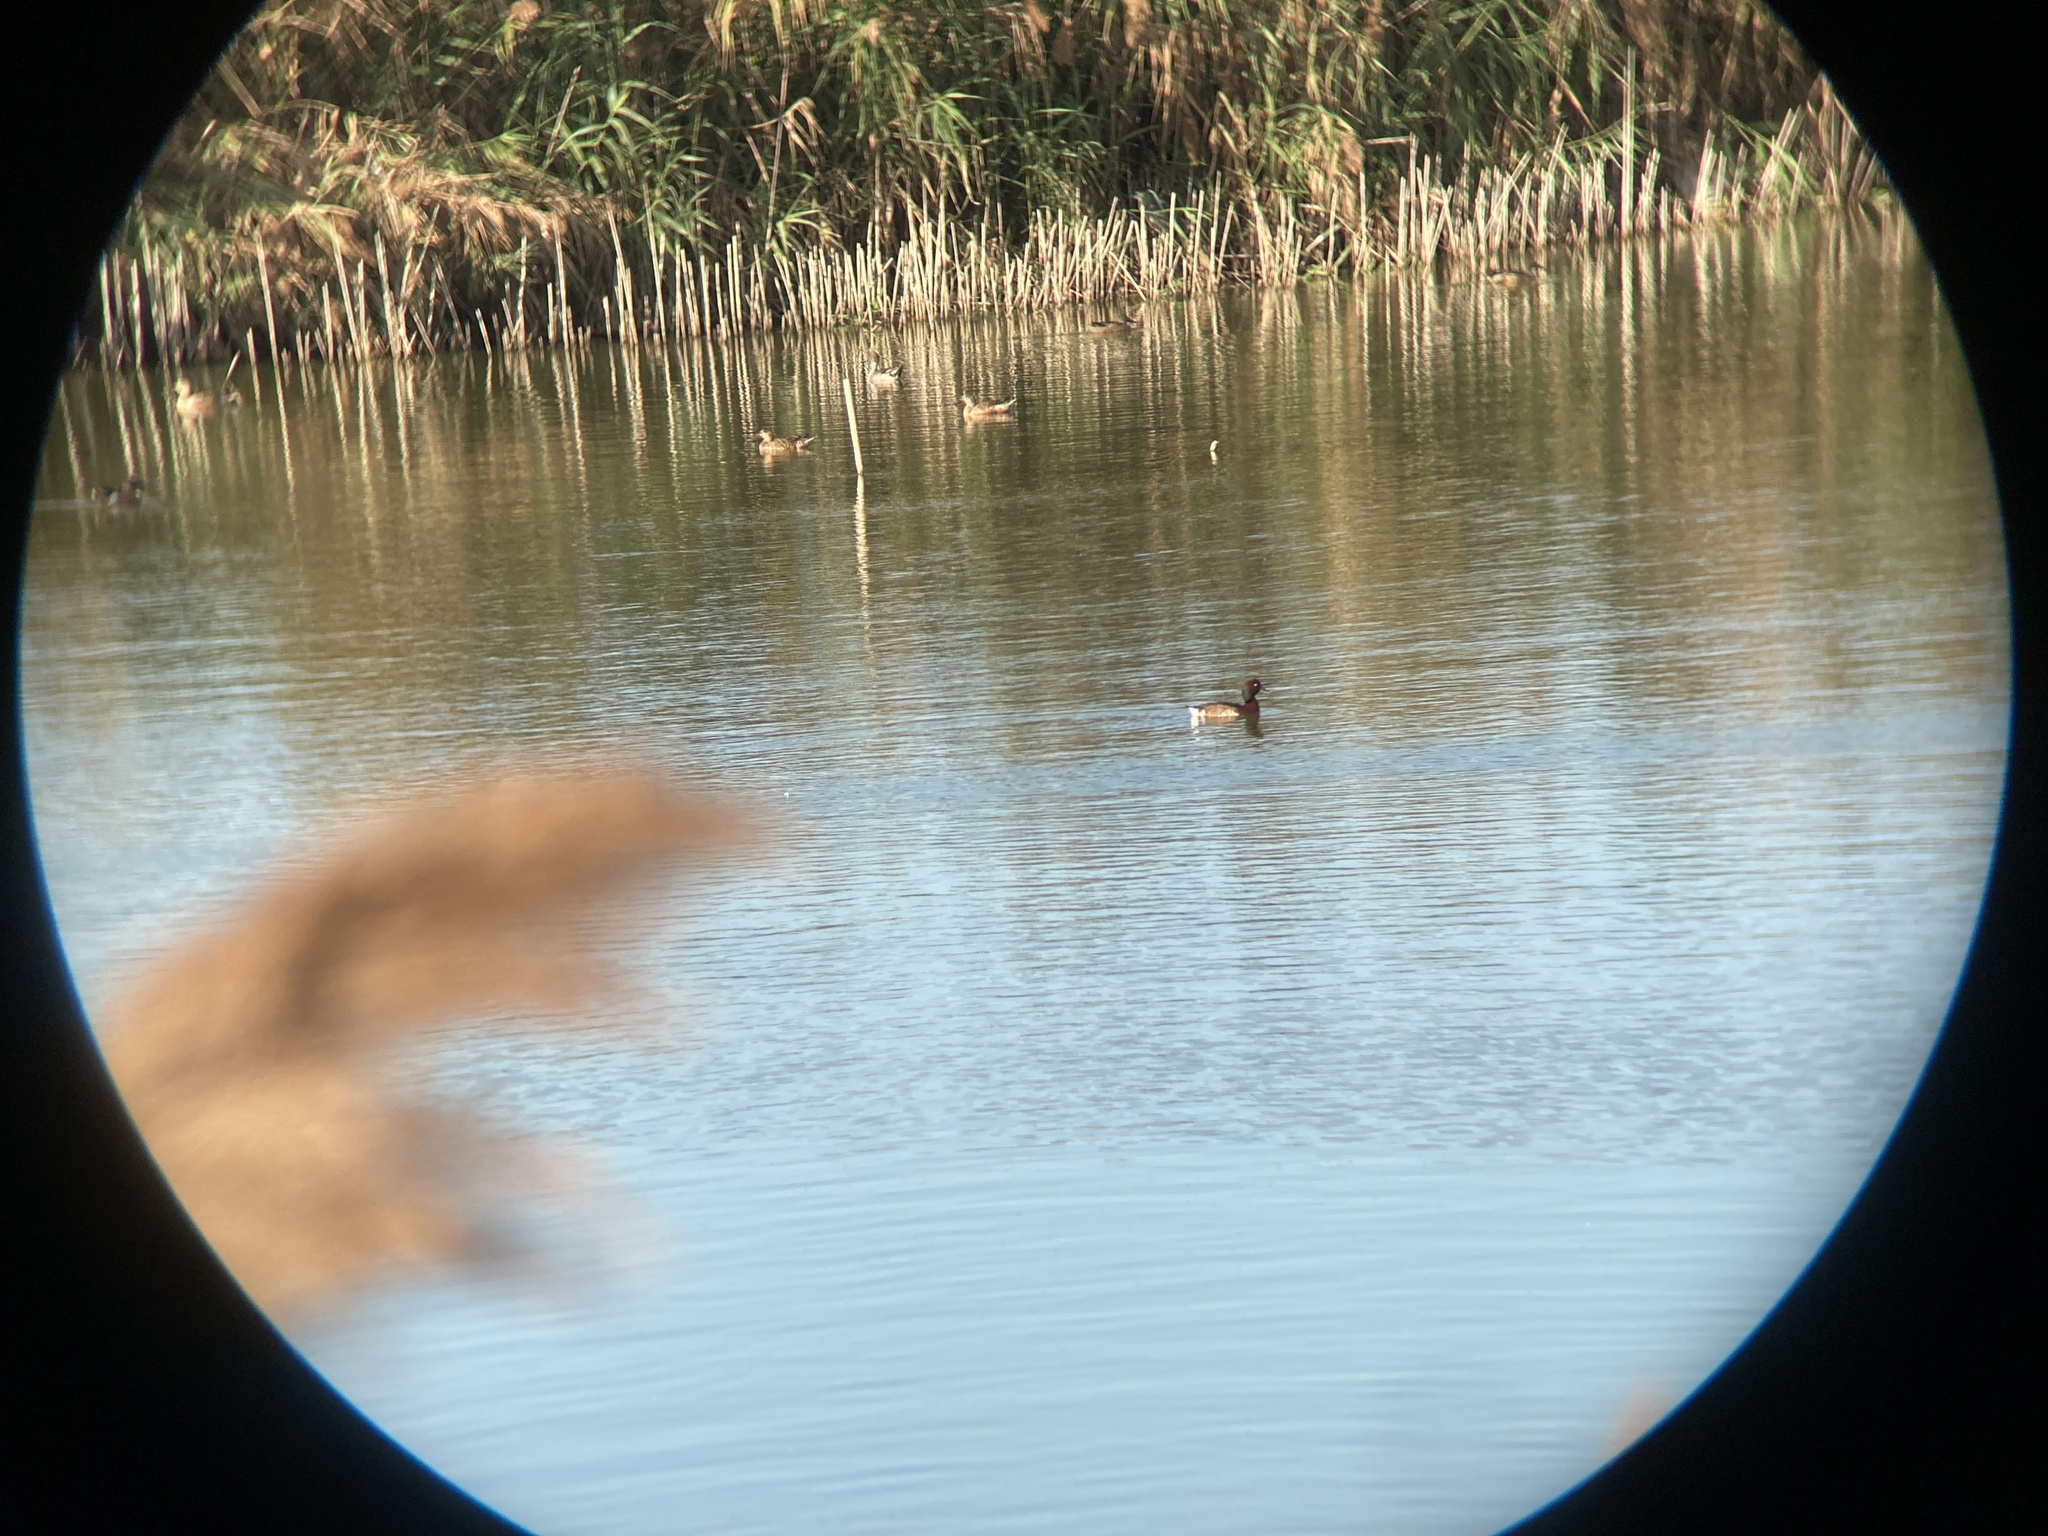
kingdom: Animalia
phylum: Chordata
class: Aves
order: Anseriformes
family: Anatidae
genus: Aythya
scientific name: Aythya baeri
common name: Baer's pochard
